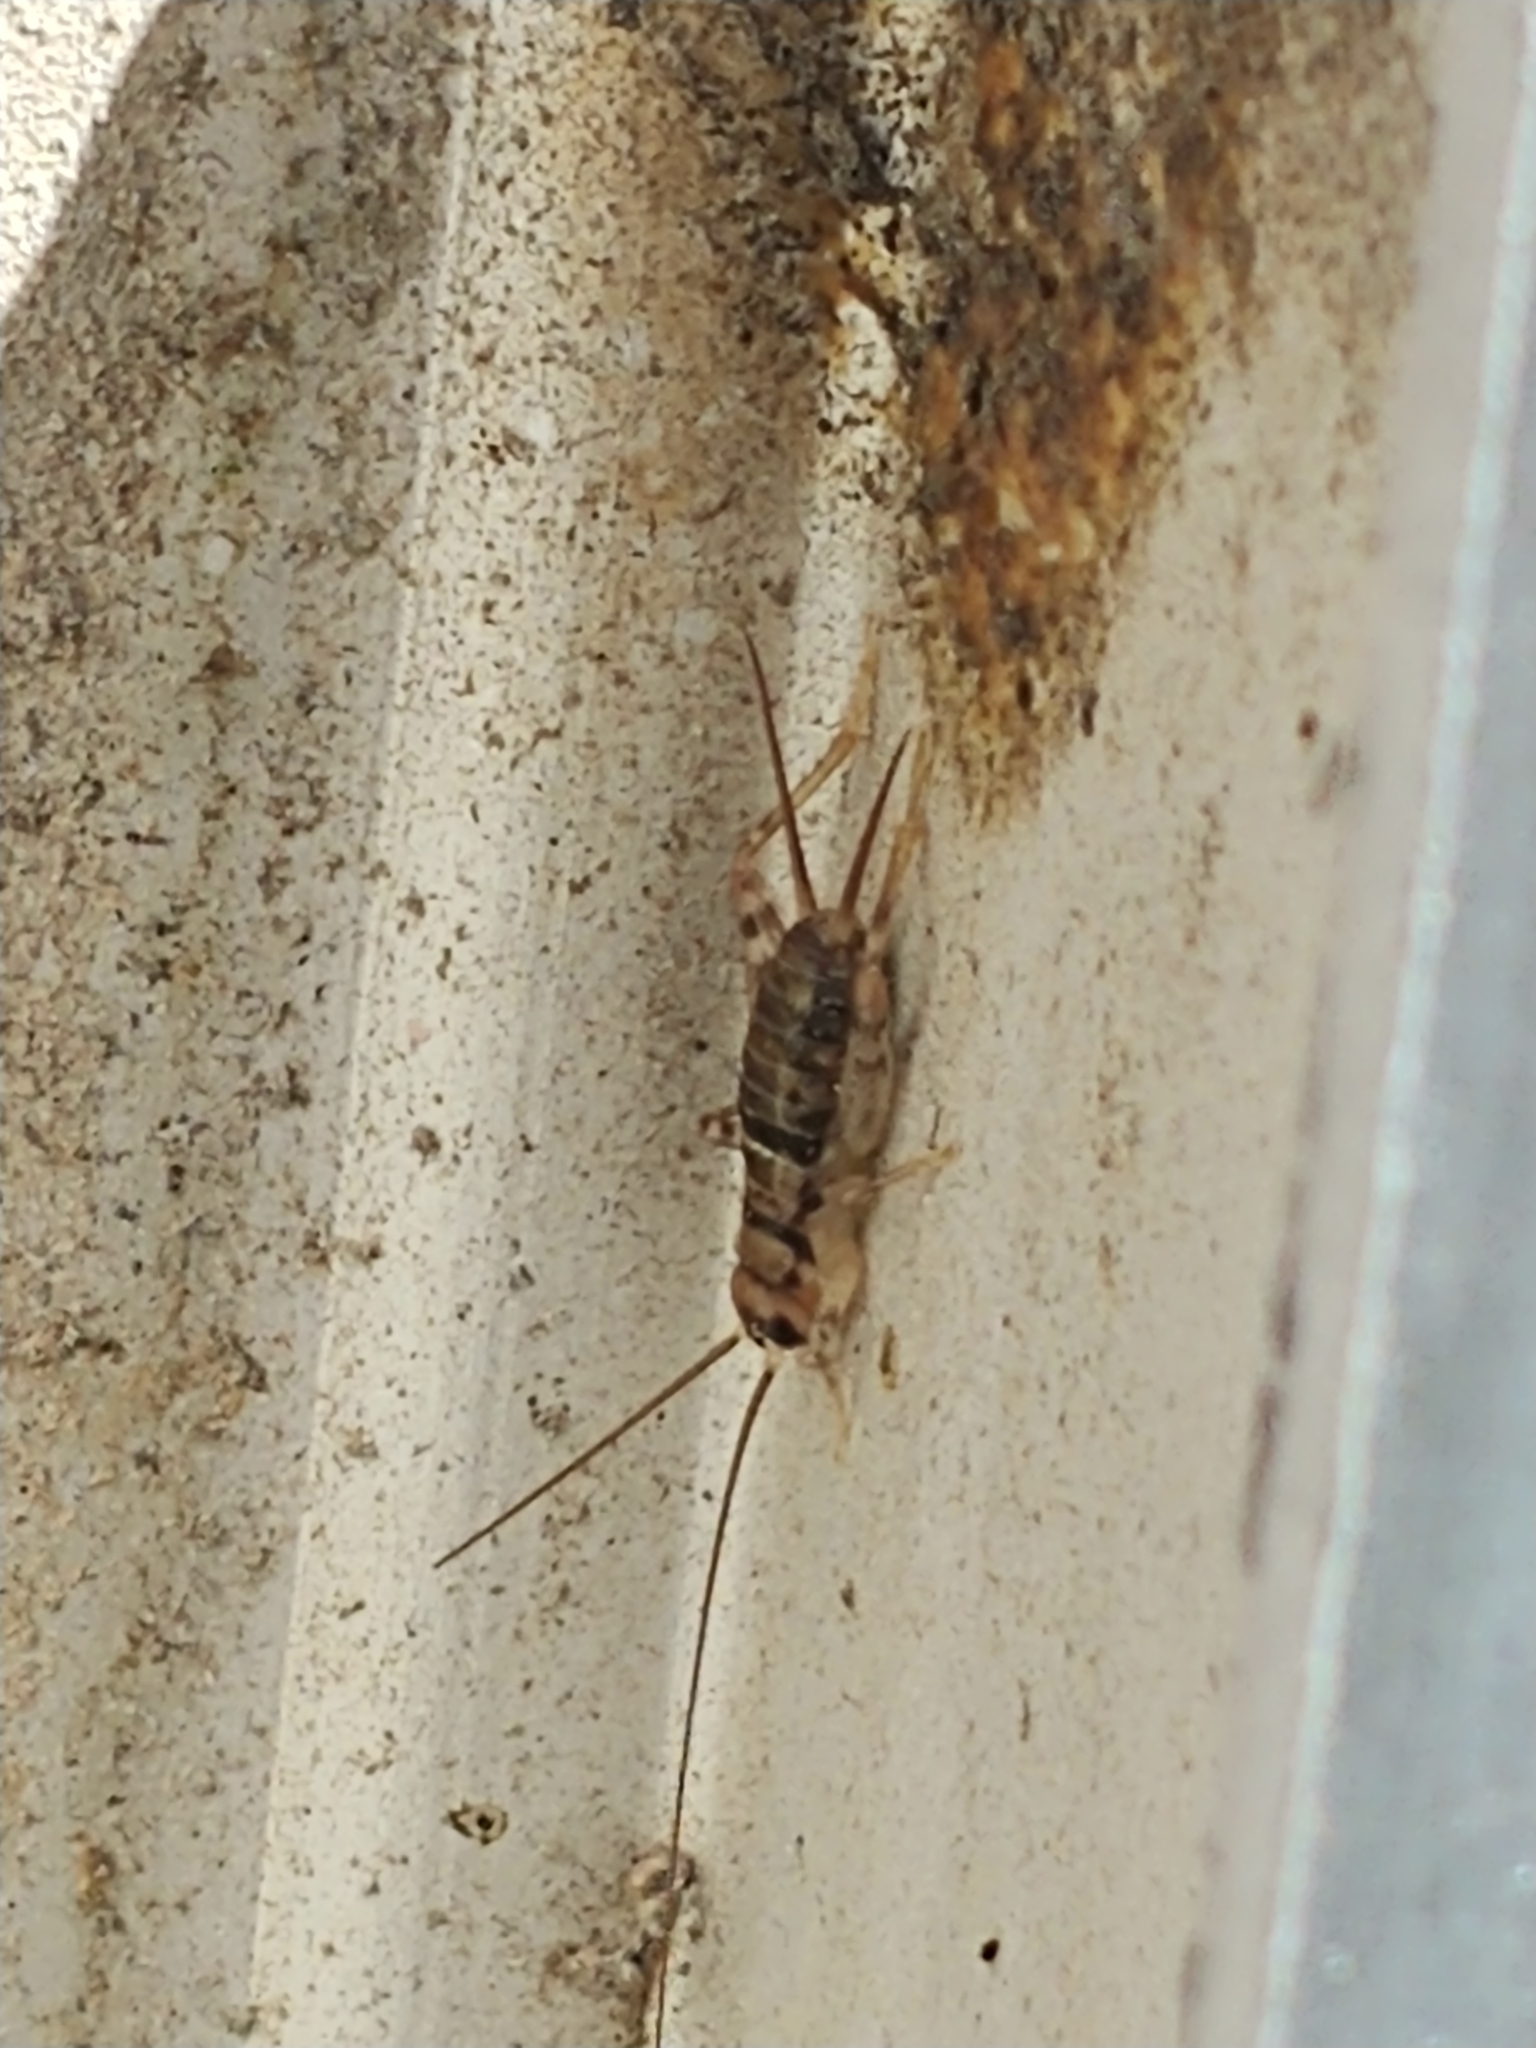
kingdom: Animalia
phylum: Arthropoda
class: Insecta
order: Orthoptera
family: Gryllidae
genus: Gryllodes
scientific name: Gryllodes sigillatus
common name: Tropical house cricket
